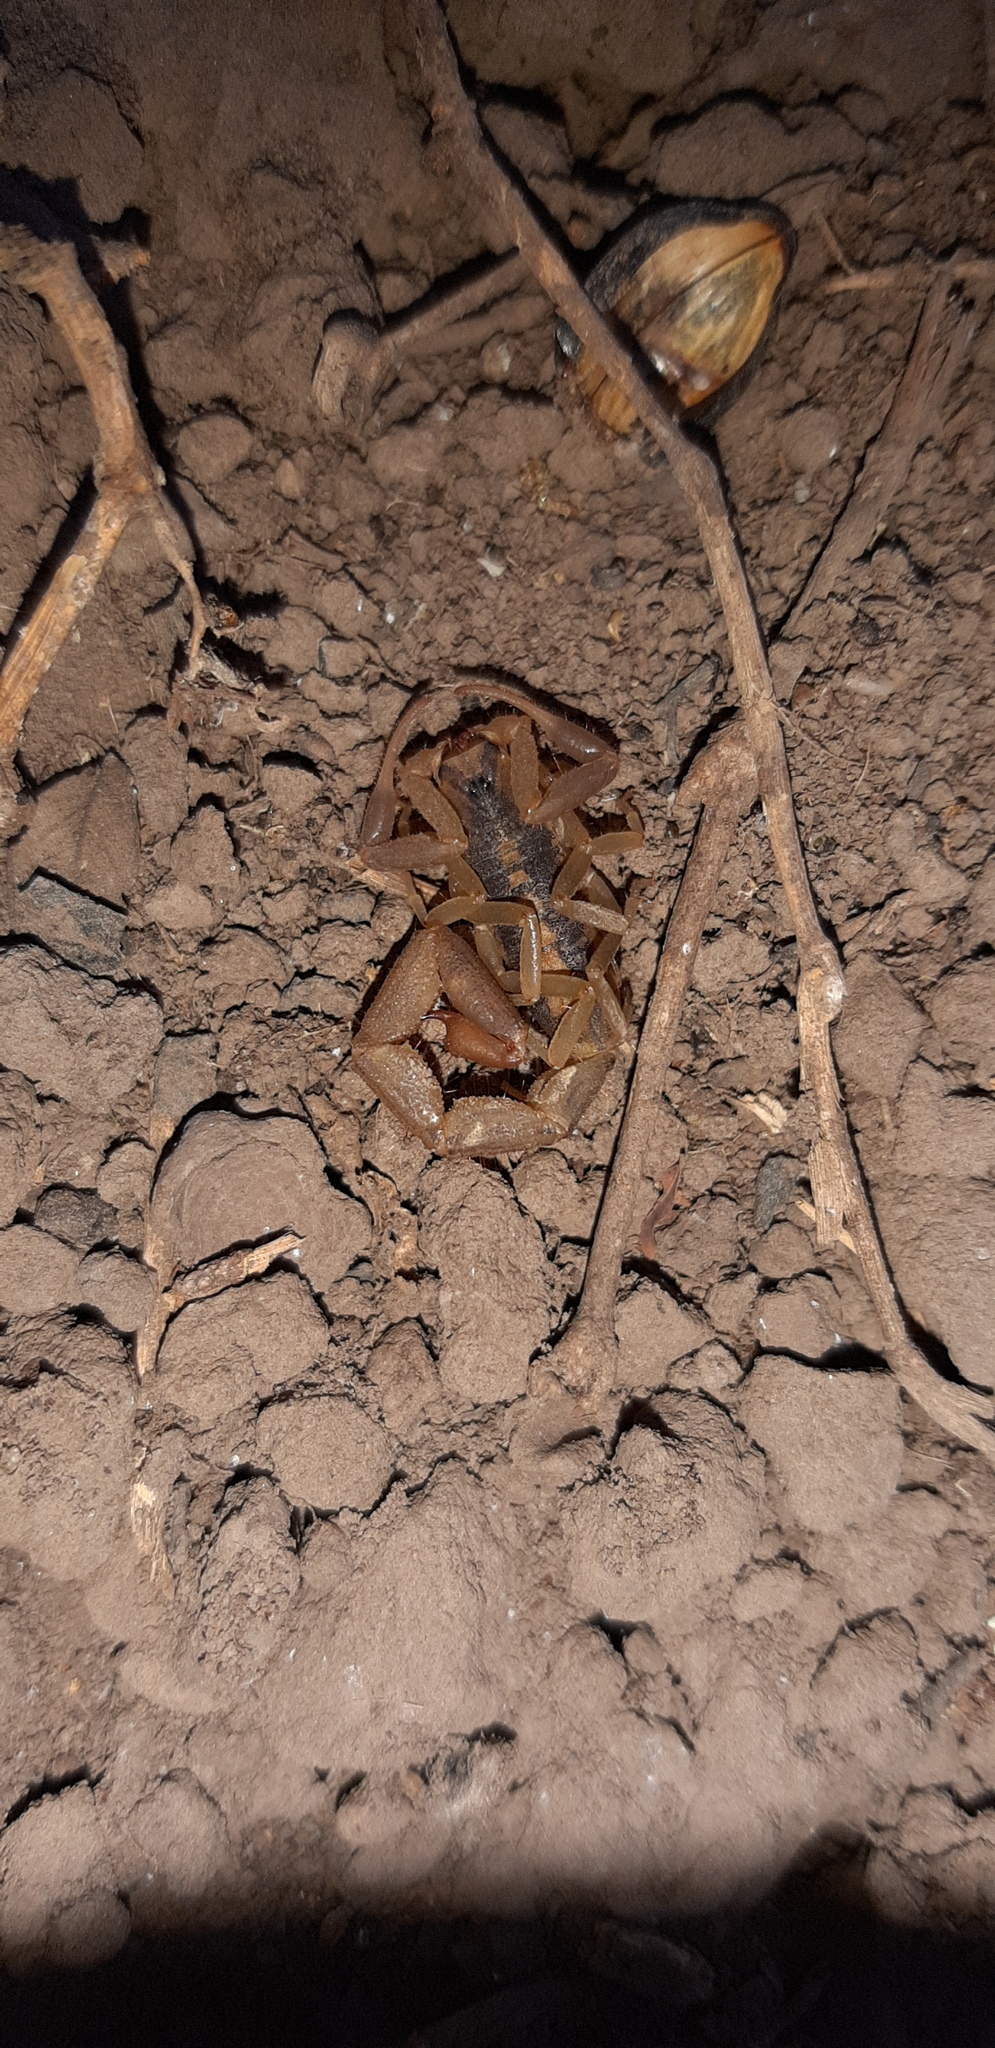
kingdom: Animalia
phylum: Arthropoda
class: Arachnida
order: Scorpiones
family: Buthidae
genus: Uroplectes
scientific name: Uroplectes triangulifer
